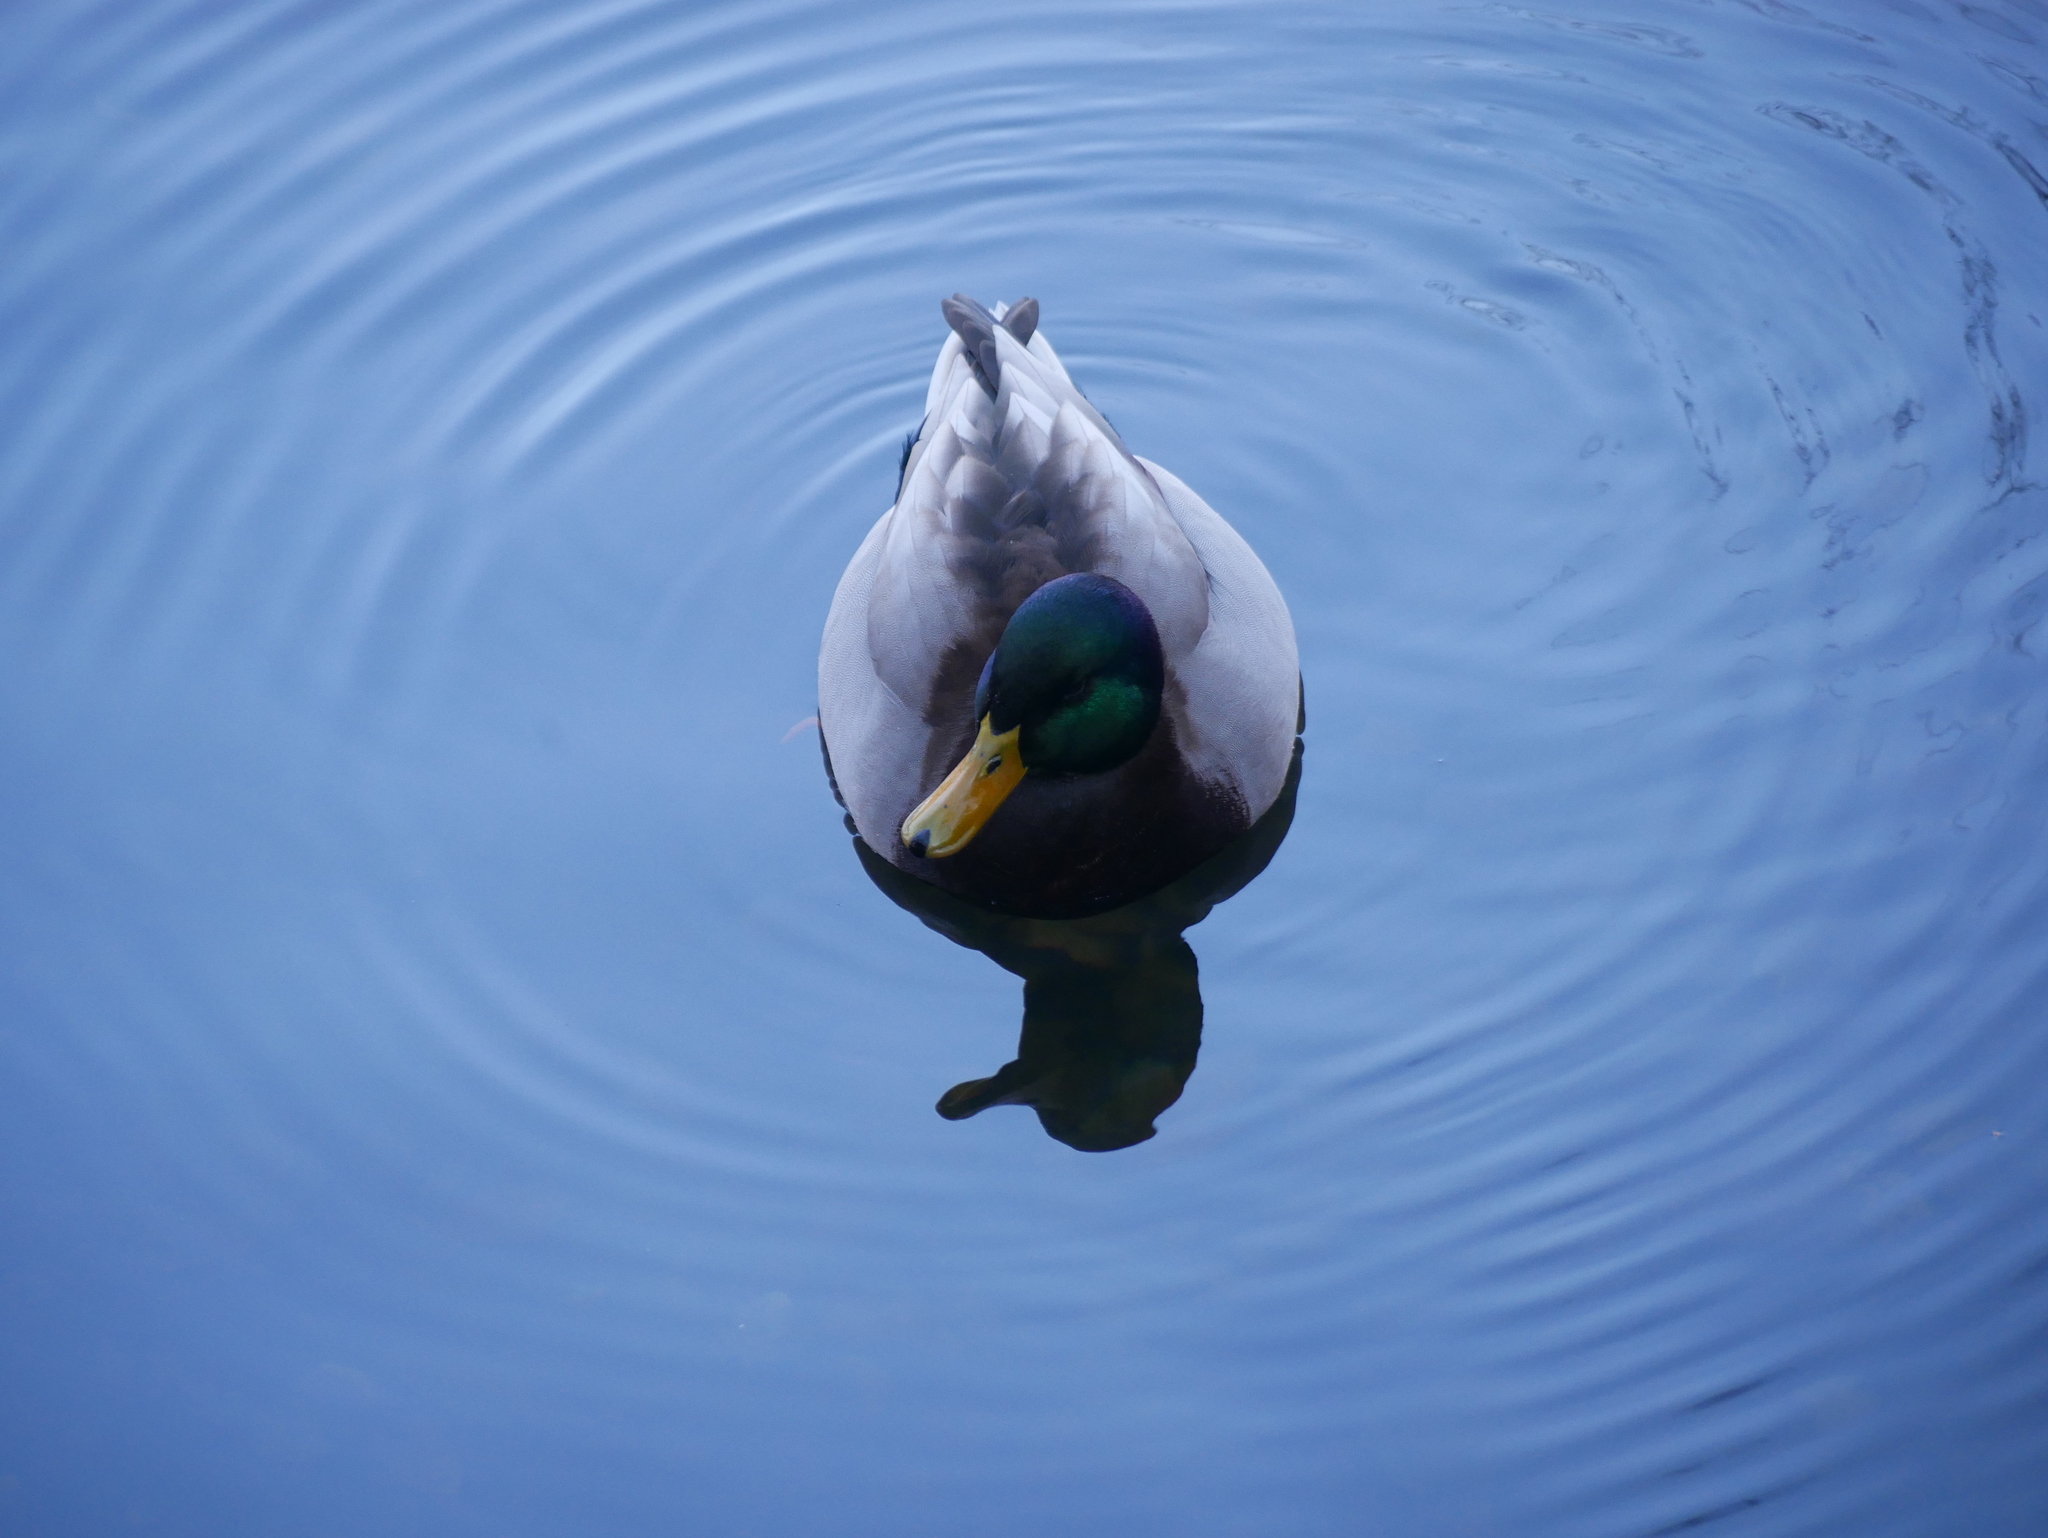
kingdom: Animalia
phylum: Chordata
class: Aves
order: Anseriformes
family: Anatidae
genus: Anas
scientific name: Anas platyrhynchos
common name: Mallard
